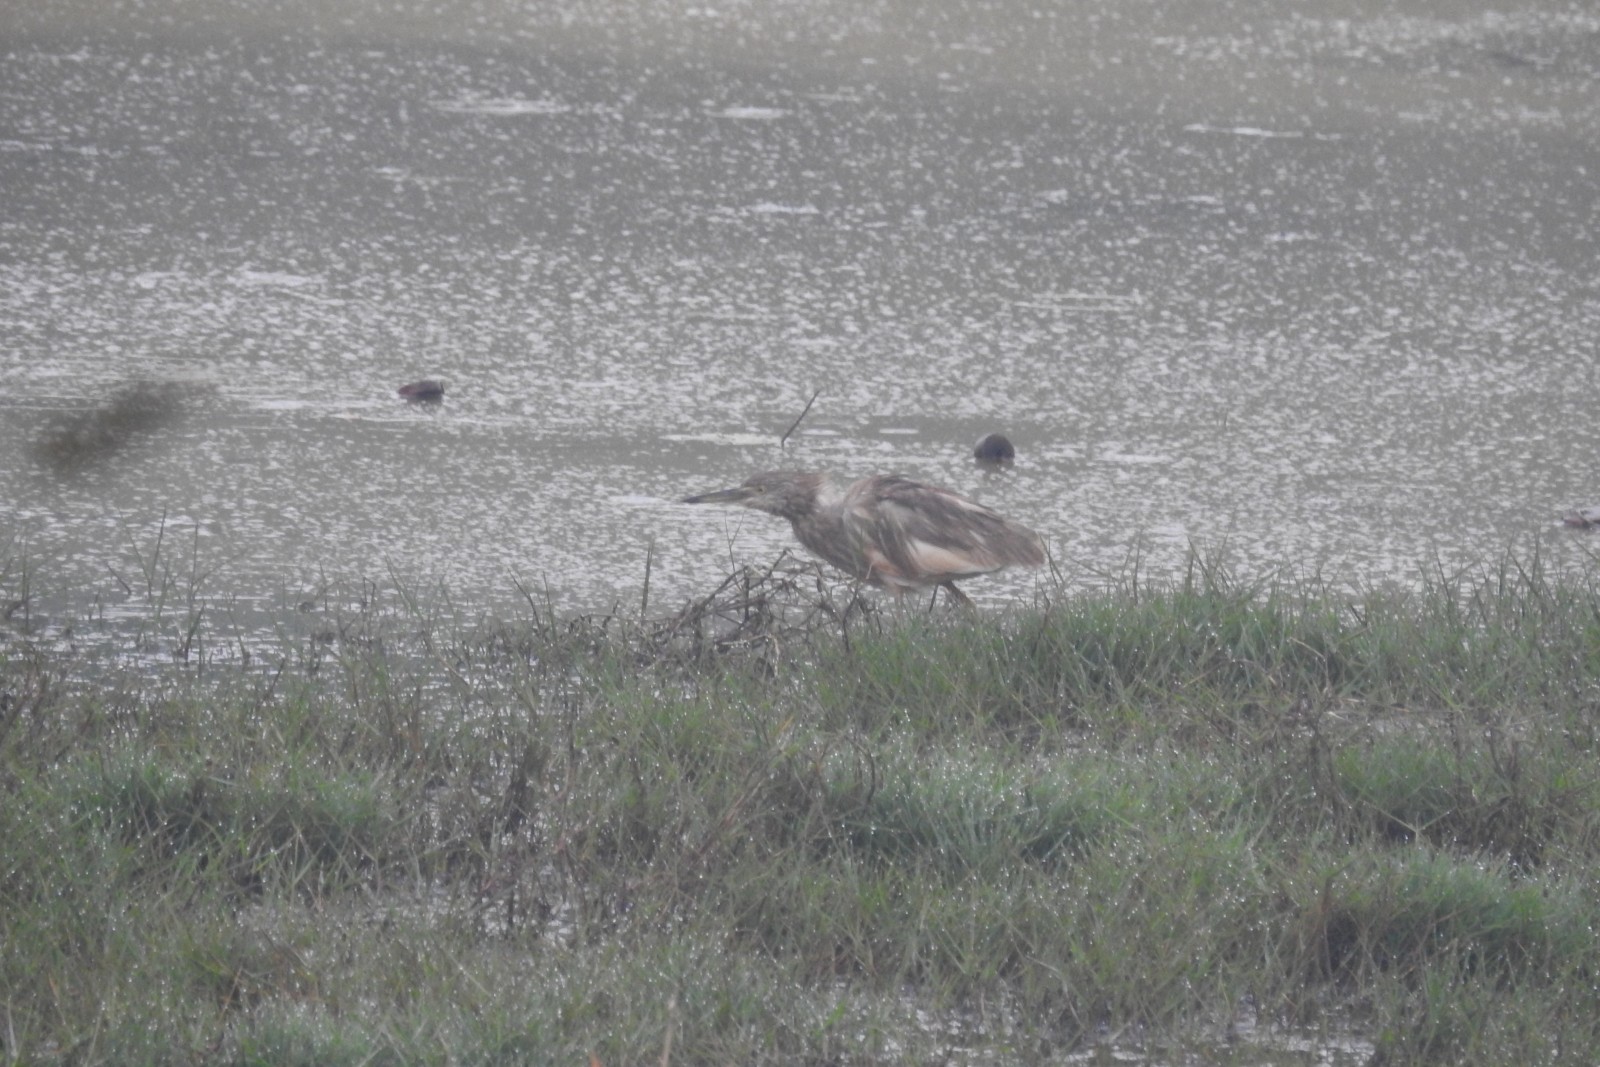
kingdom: Animalia
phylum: Chordata
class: Aves
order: Pelecaniformes
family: Ardeidae
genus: Ardeola
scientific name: Ardeola grayii
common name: Indian pond heron
